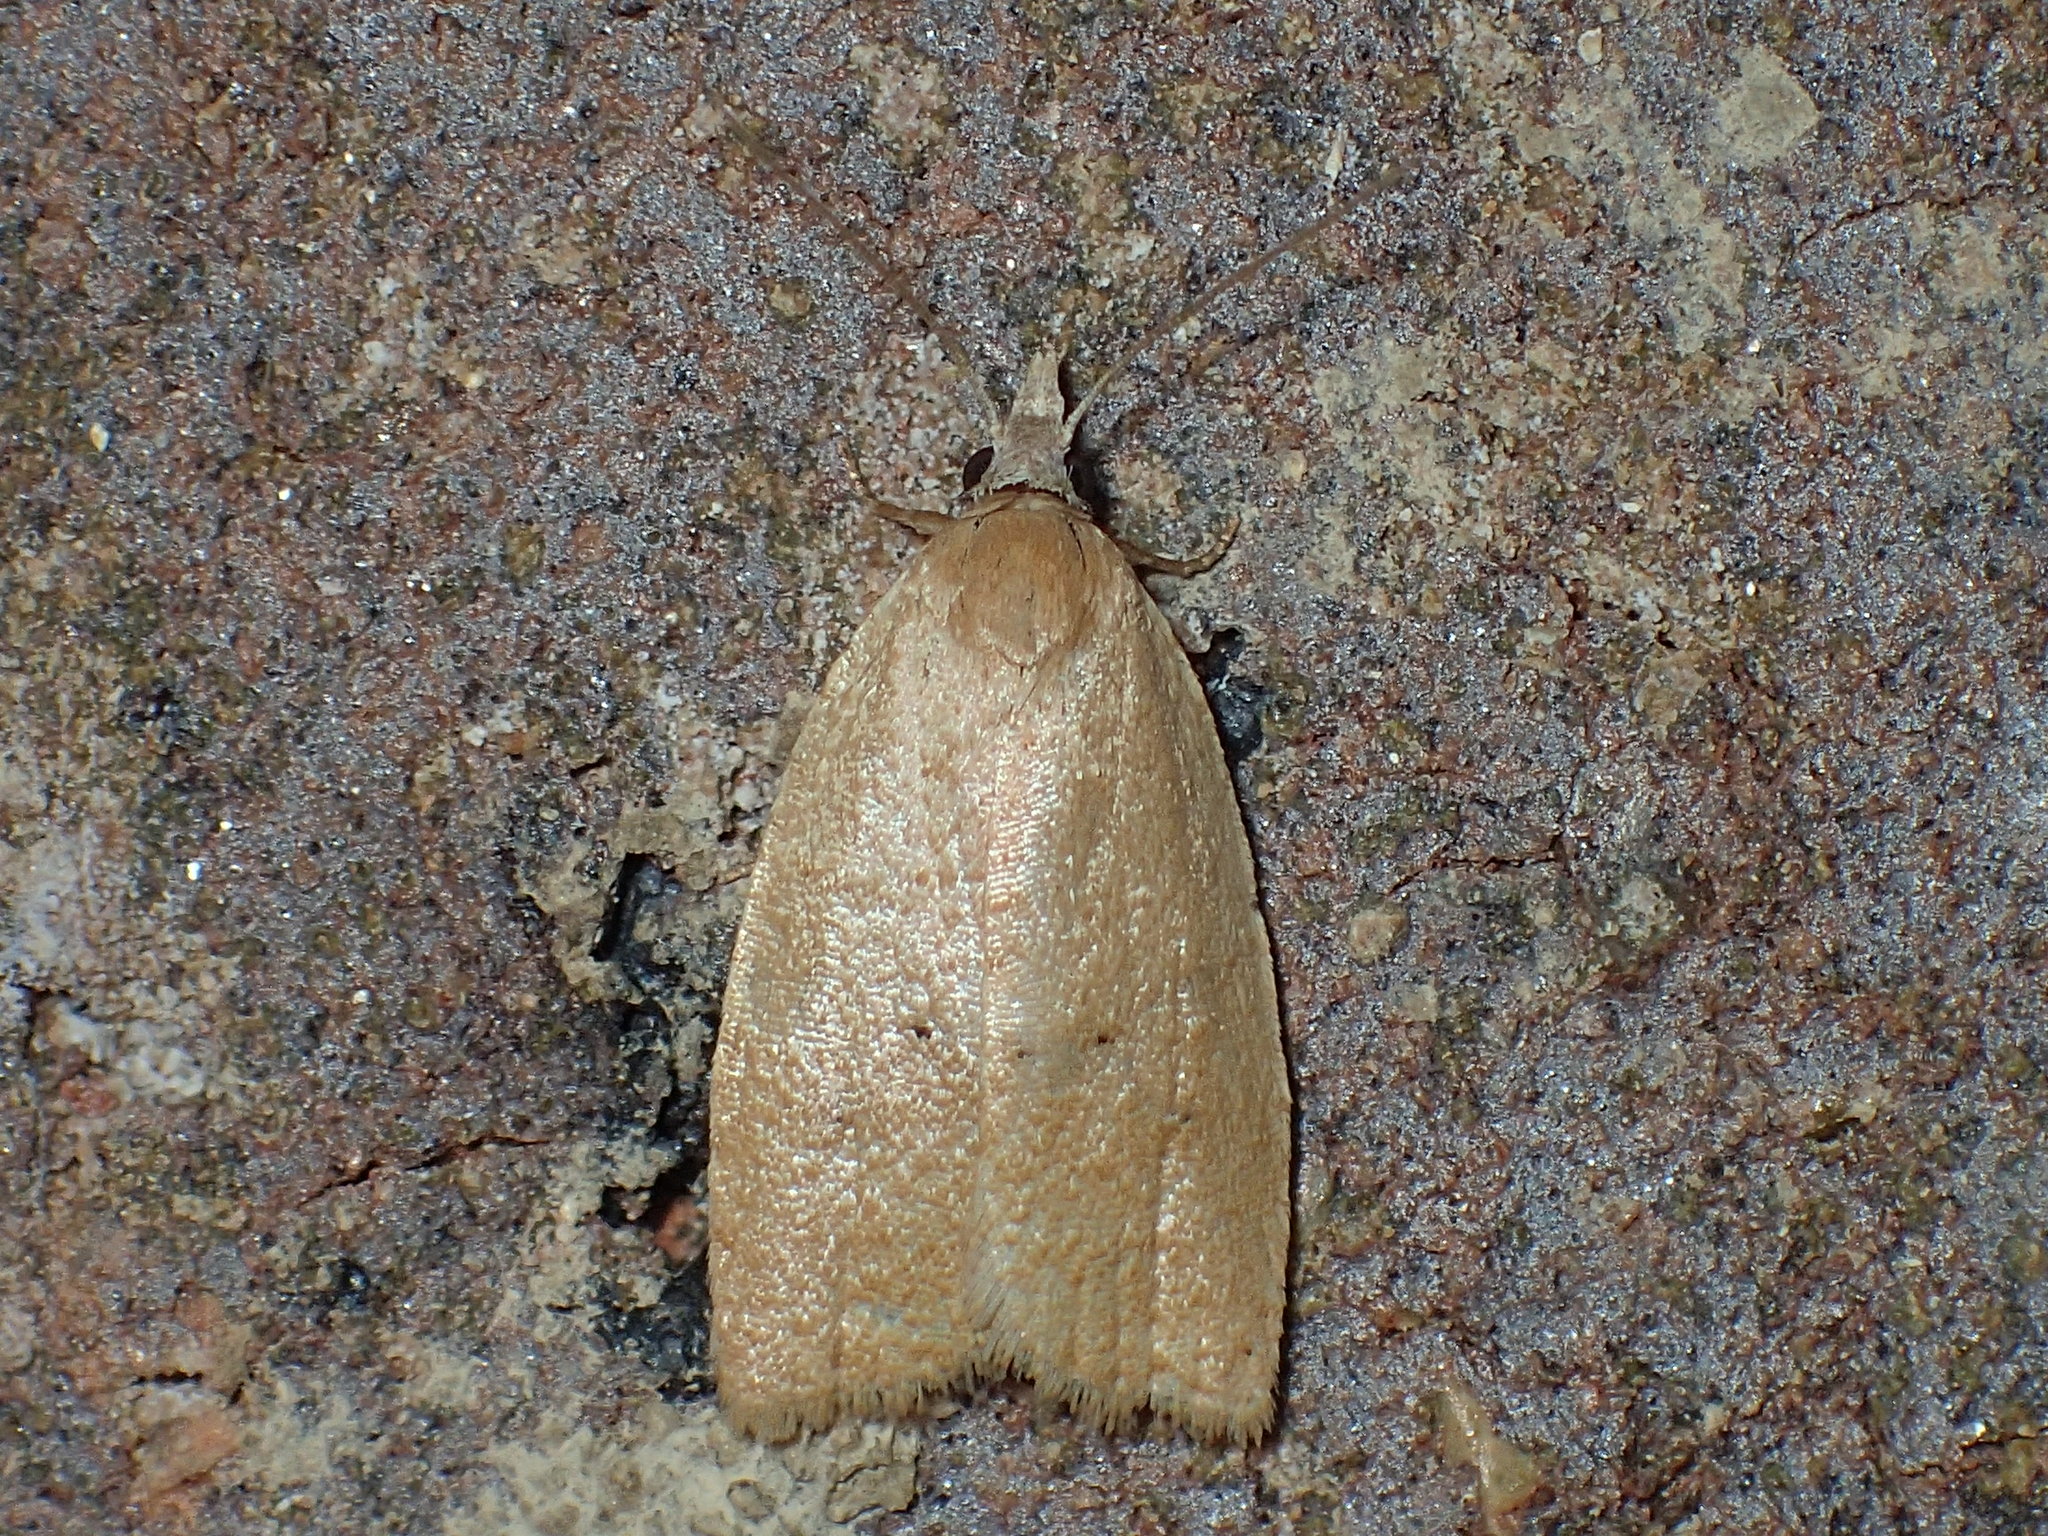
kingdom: Animalia
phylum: Arthropoda
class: Insecta
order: Lepidoptera
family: Tortricidae
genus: Sparganothoides
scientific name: Sparganothoides lentiginosana
